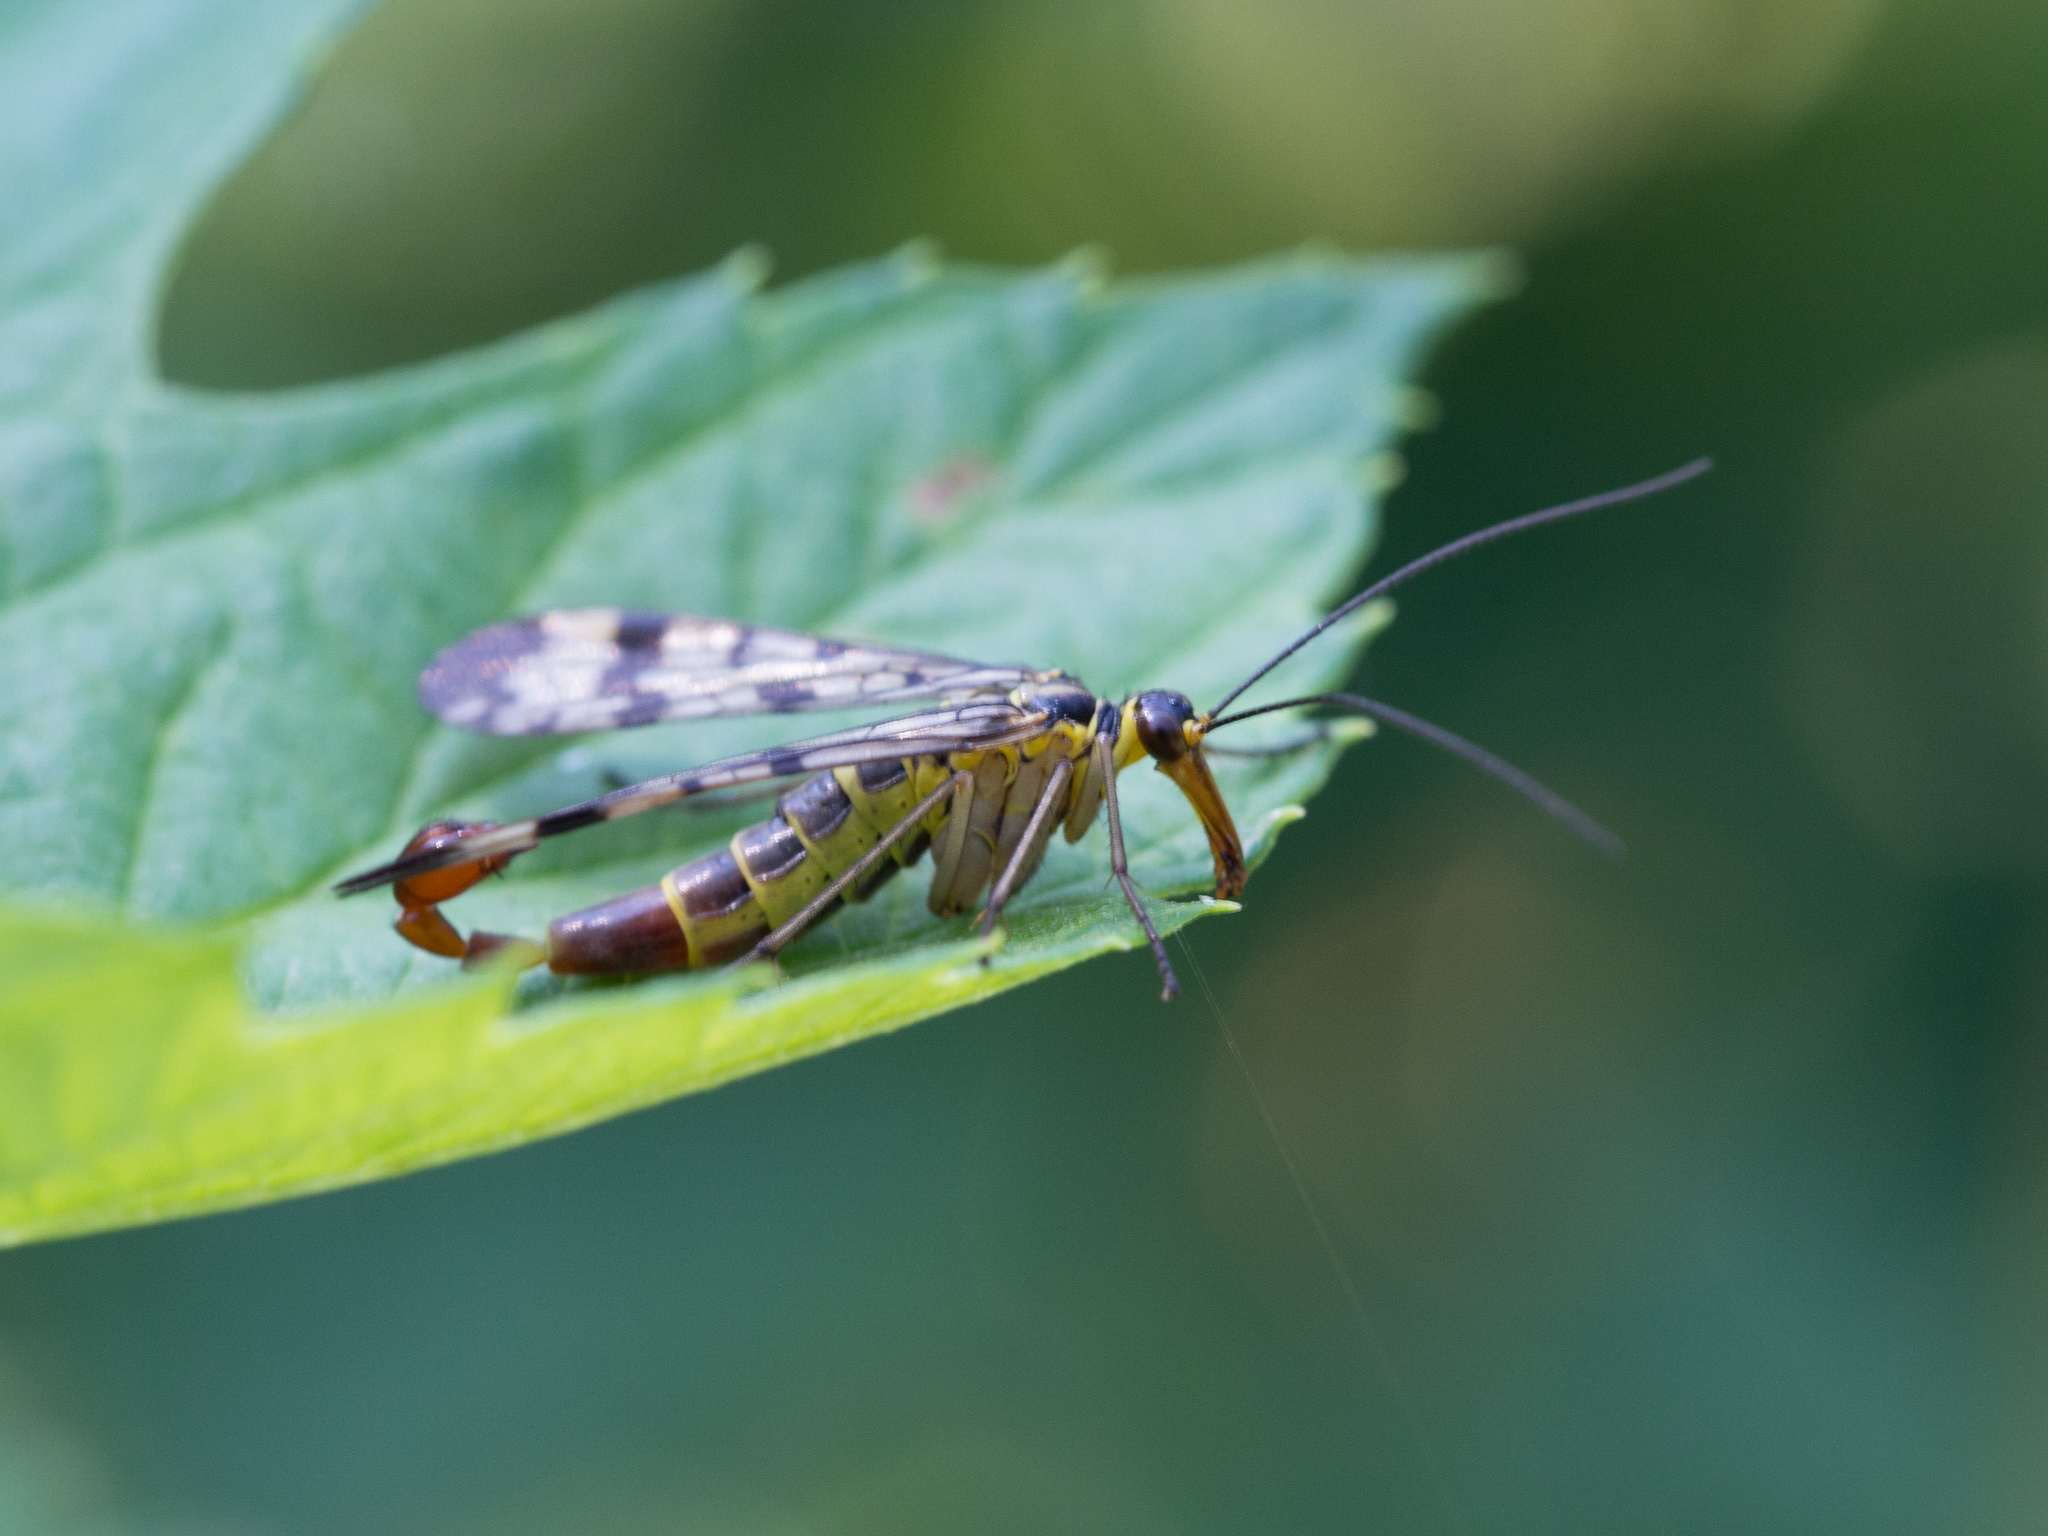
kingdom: Animalia
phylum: Arthropoda
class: Insecta
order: Mecoptera
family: Panorpidae
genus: Panorpa
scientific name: Panorpa communis
